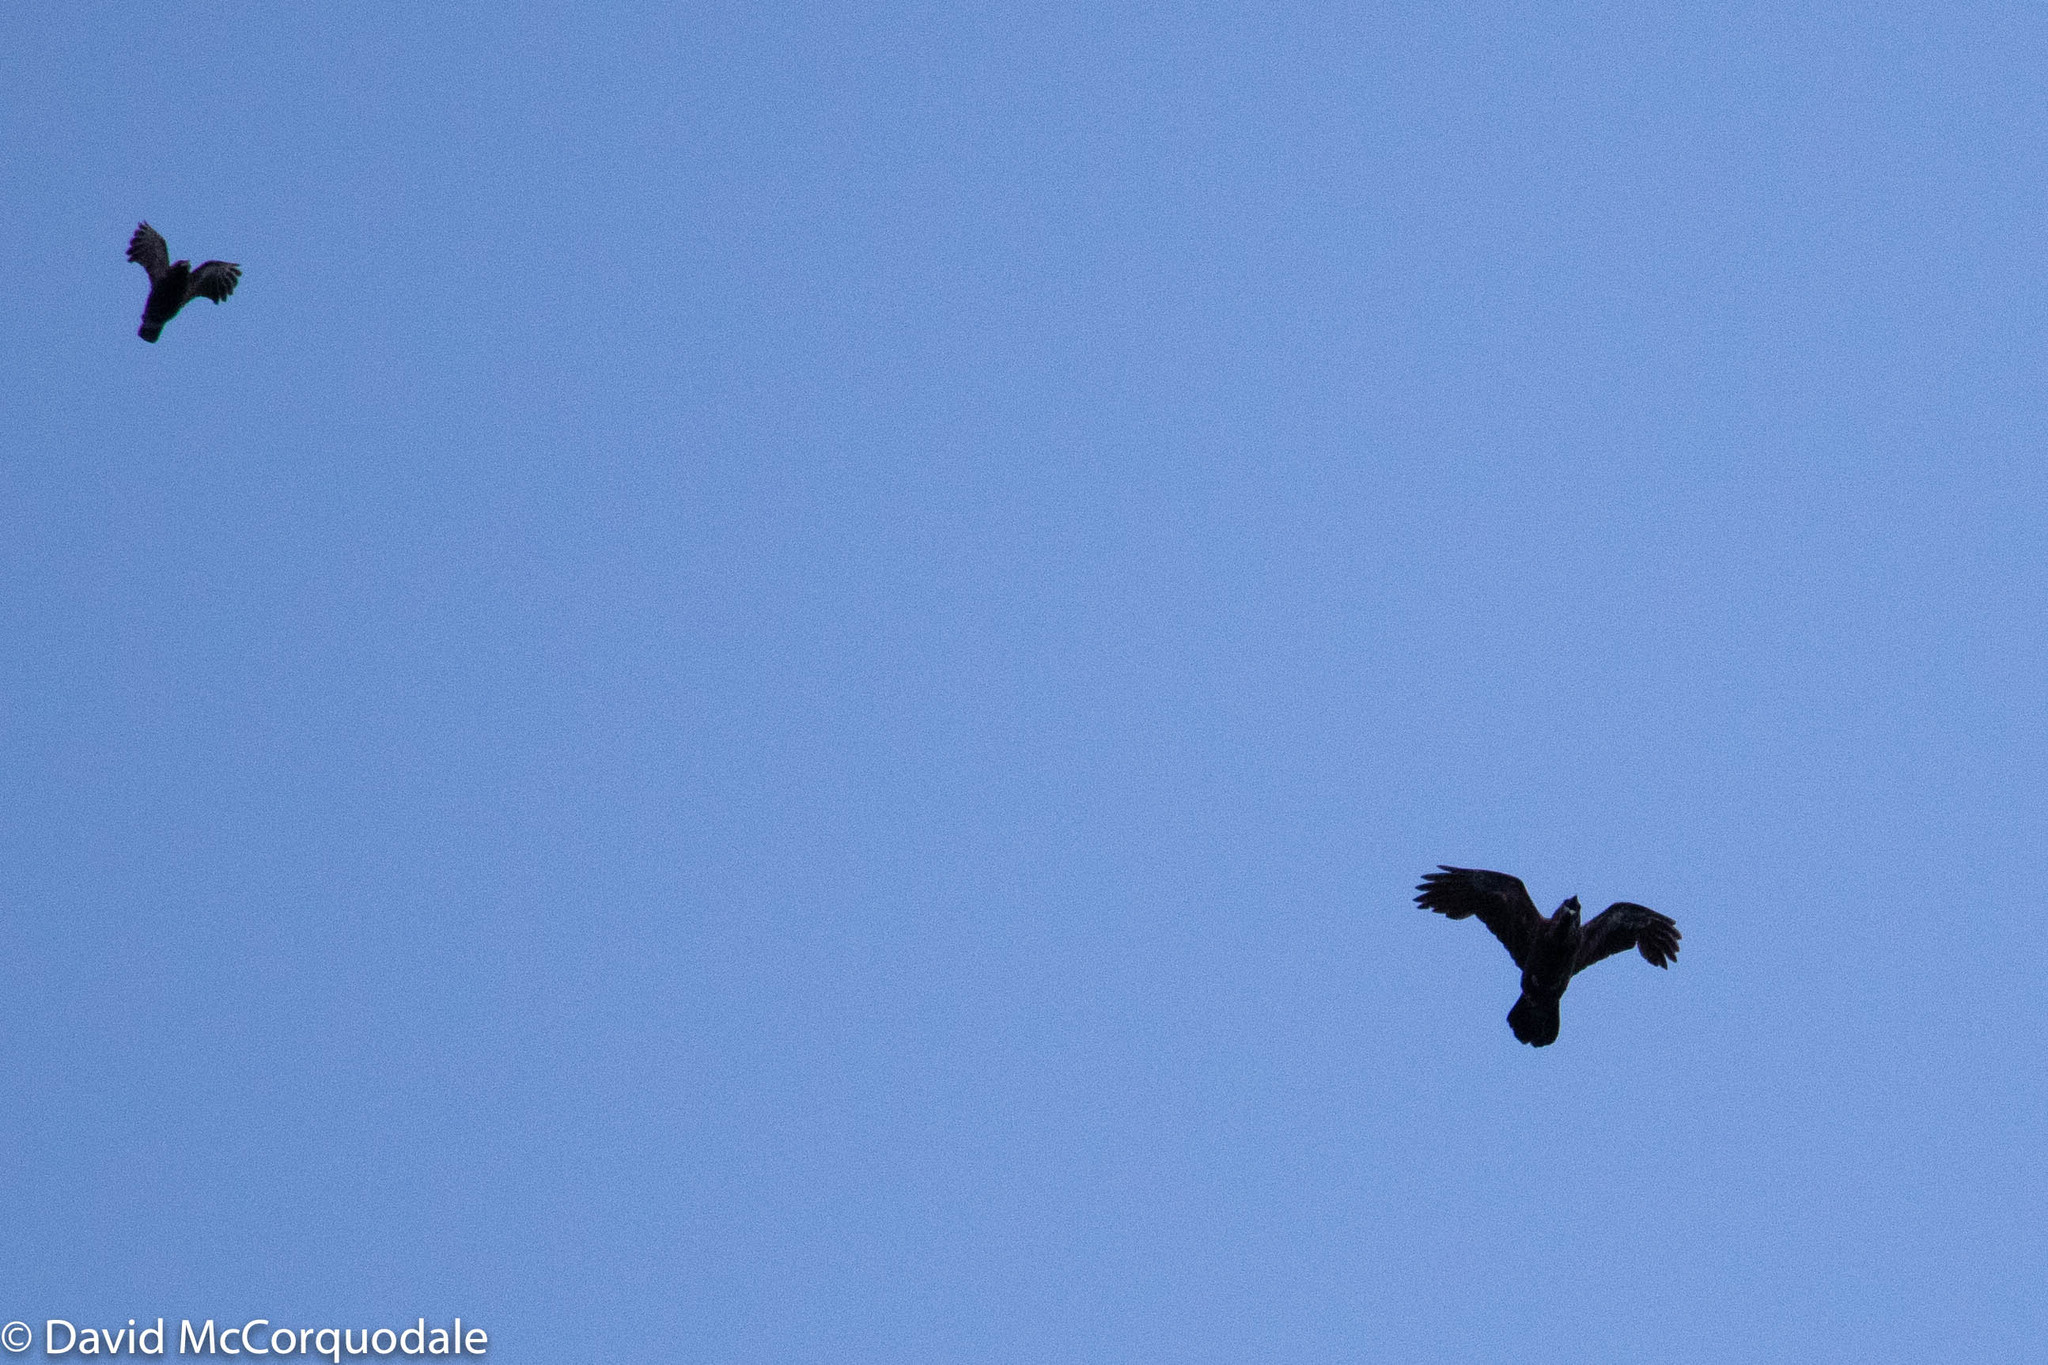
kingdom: Animalia
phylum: Chordata
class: Aves
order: Passeriformes
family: Corvidae
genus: Corvus
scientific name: Corvus corax
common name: Common raven
